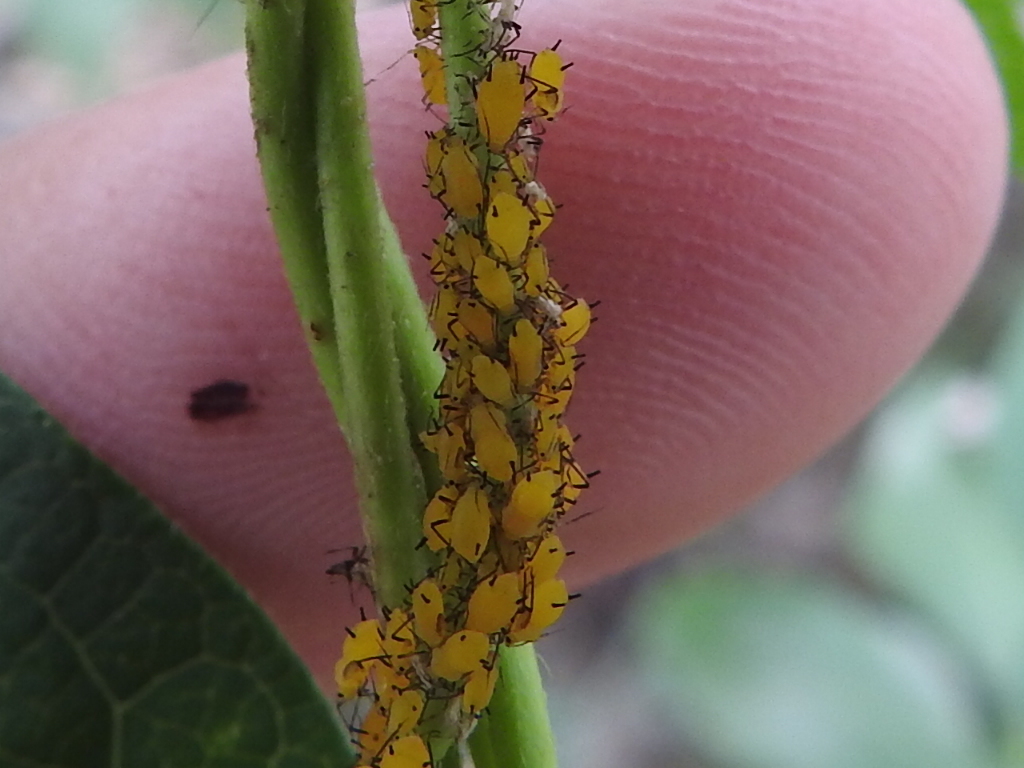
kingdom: Animalia
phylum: Arthropoda
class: Insecta
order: Hemiptera
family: Aphididae
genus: Aphis
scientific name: Aphis nerii
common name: Oleander aphid
